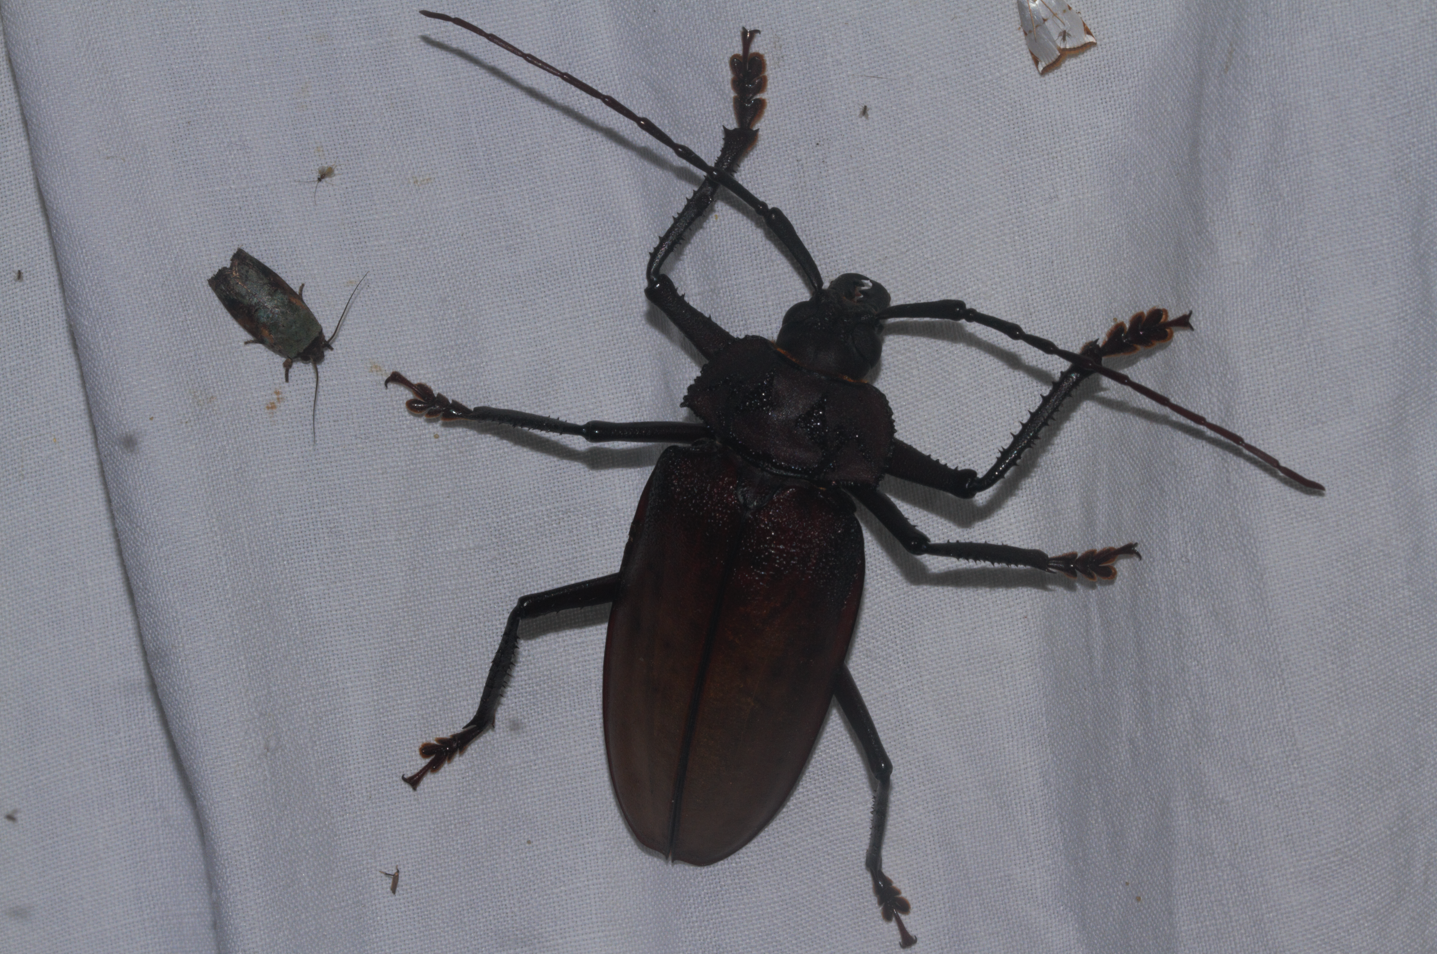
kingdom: Animalia
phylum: Arthropoda
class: Insecta
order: Coleoptera
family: Cerambycidae
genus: Ialyssus
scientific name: Ialyssus tuberculatus
